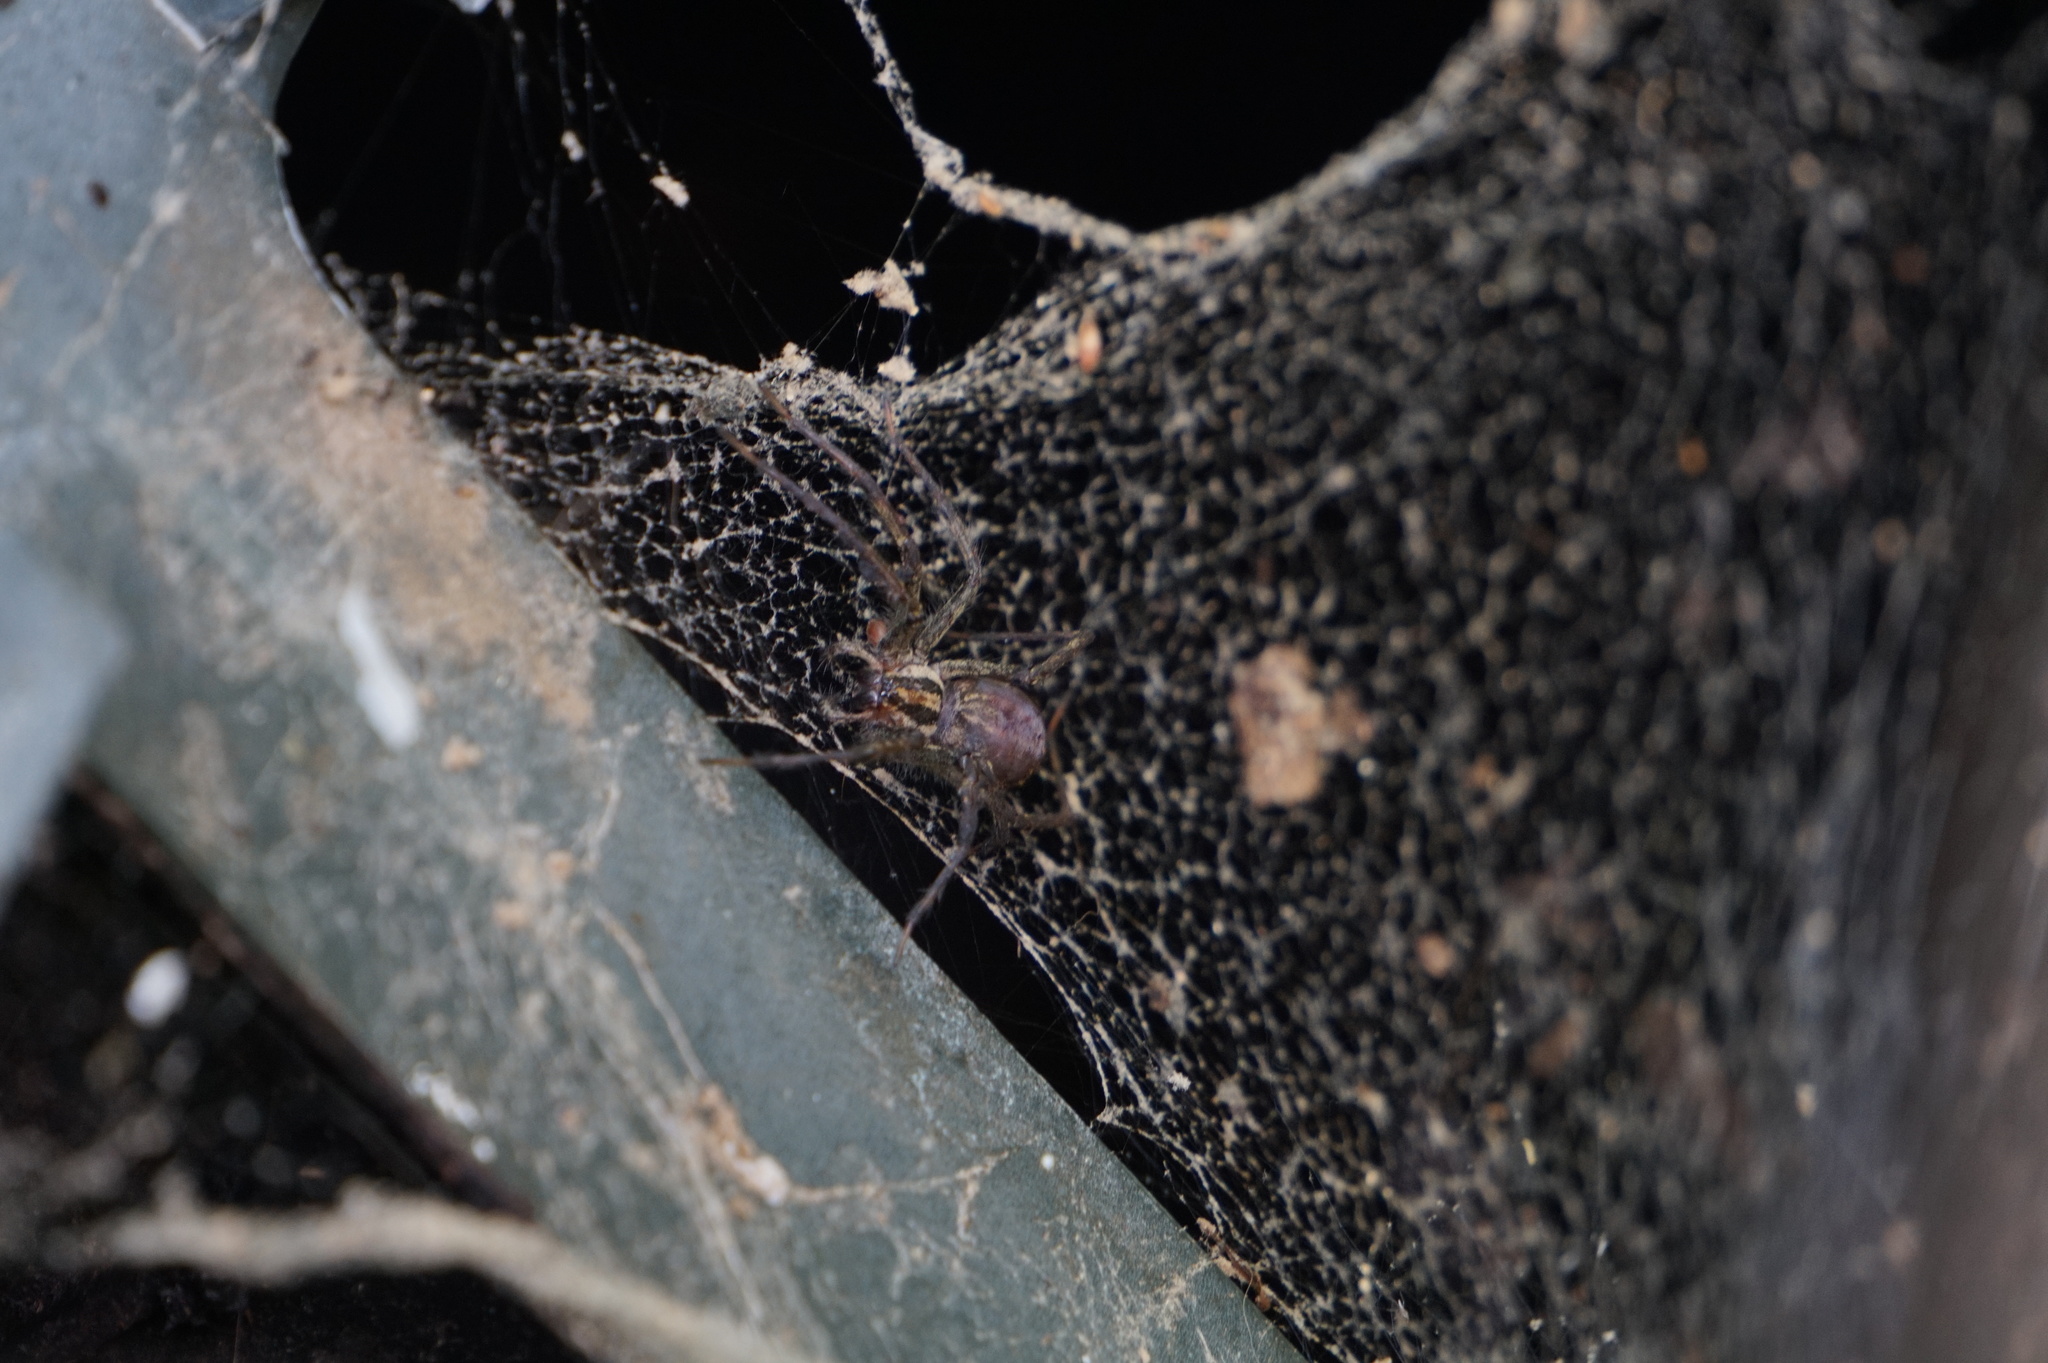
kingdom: Animalia
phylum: Arthropoda
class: Arachnida
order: Araneae
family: Agelenidae
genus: Agelenopsis
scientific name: Agelenopsis
